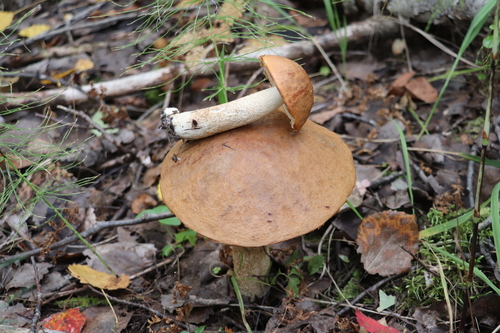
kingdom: Fungi
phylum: Basidiomycota
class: Agaricomycetes
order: Boletales
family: Boletaceae
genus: Leccinum
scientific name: Leccinum albostipitatum
